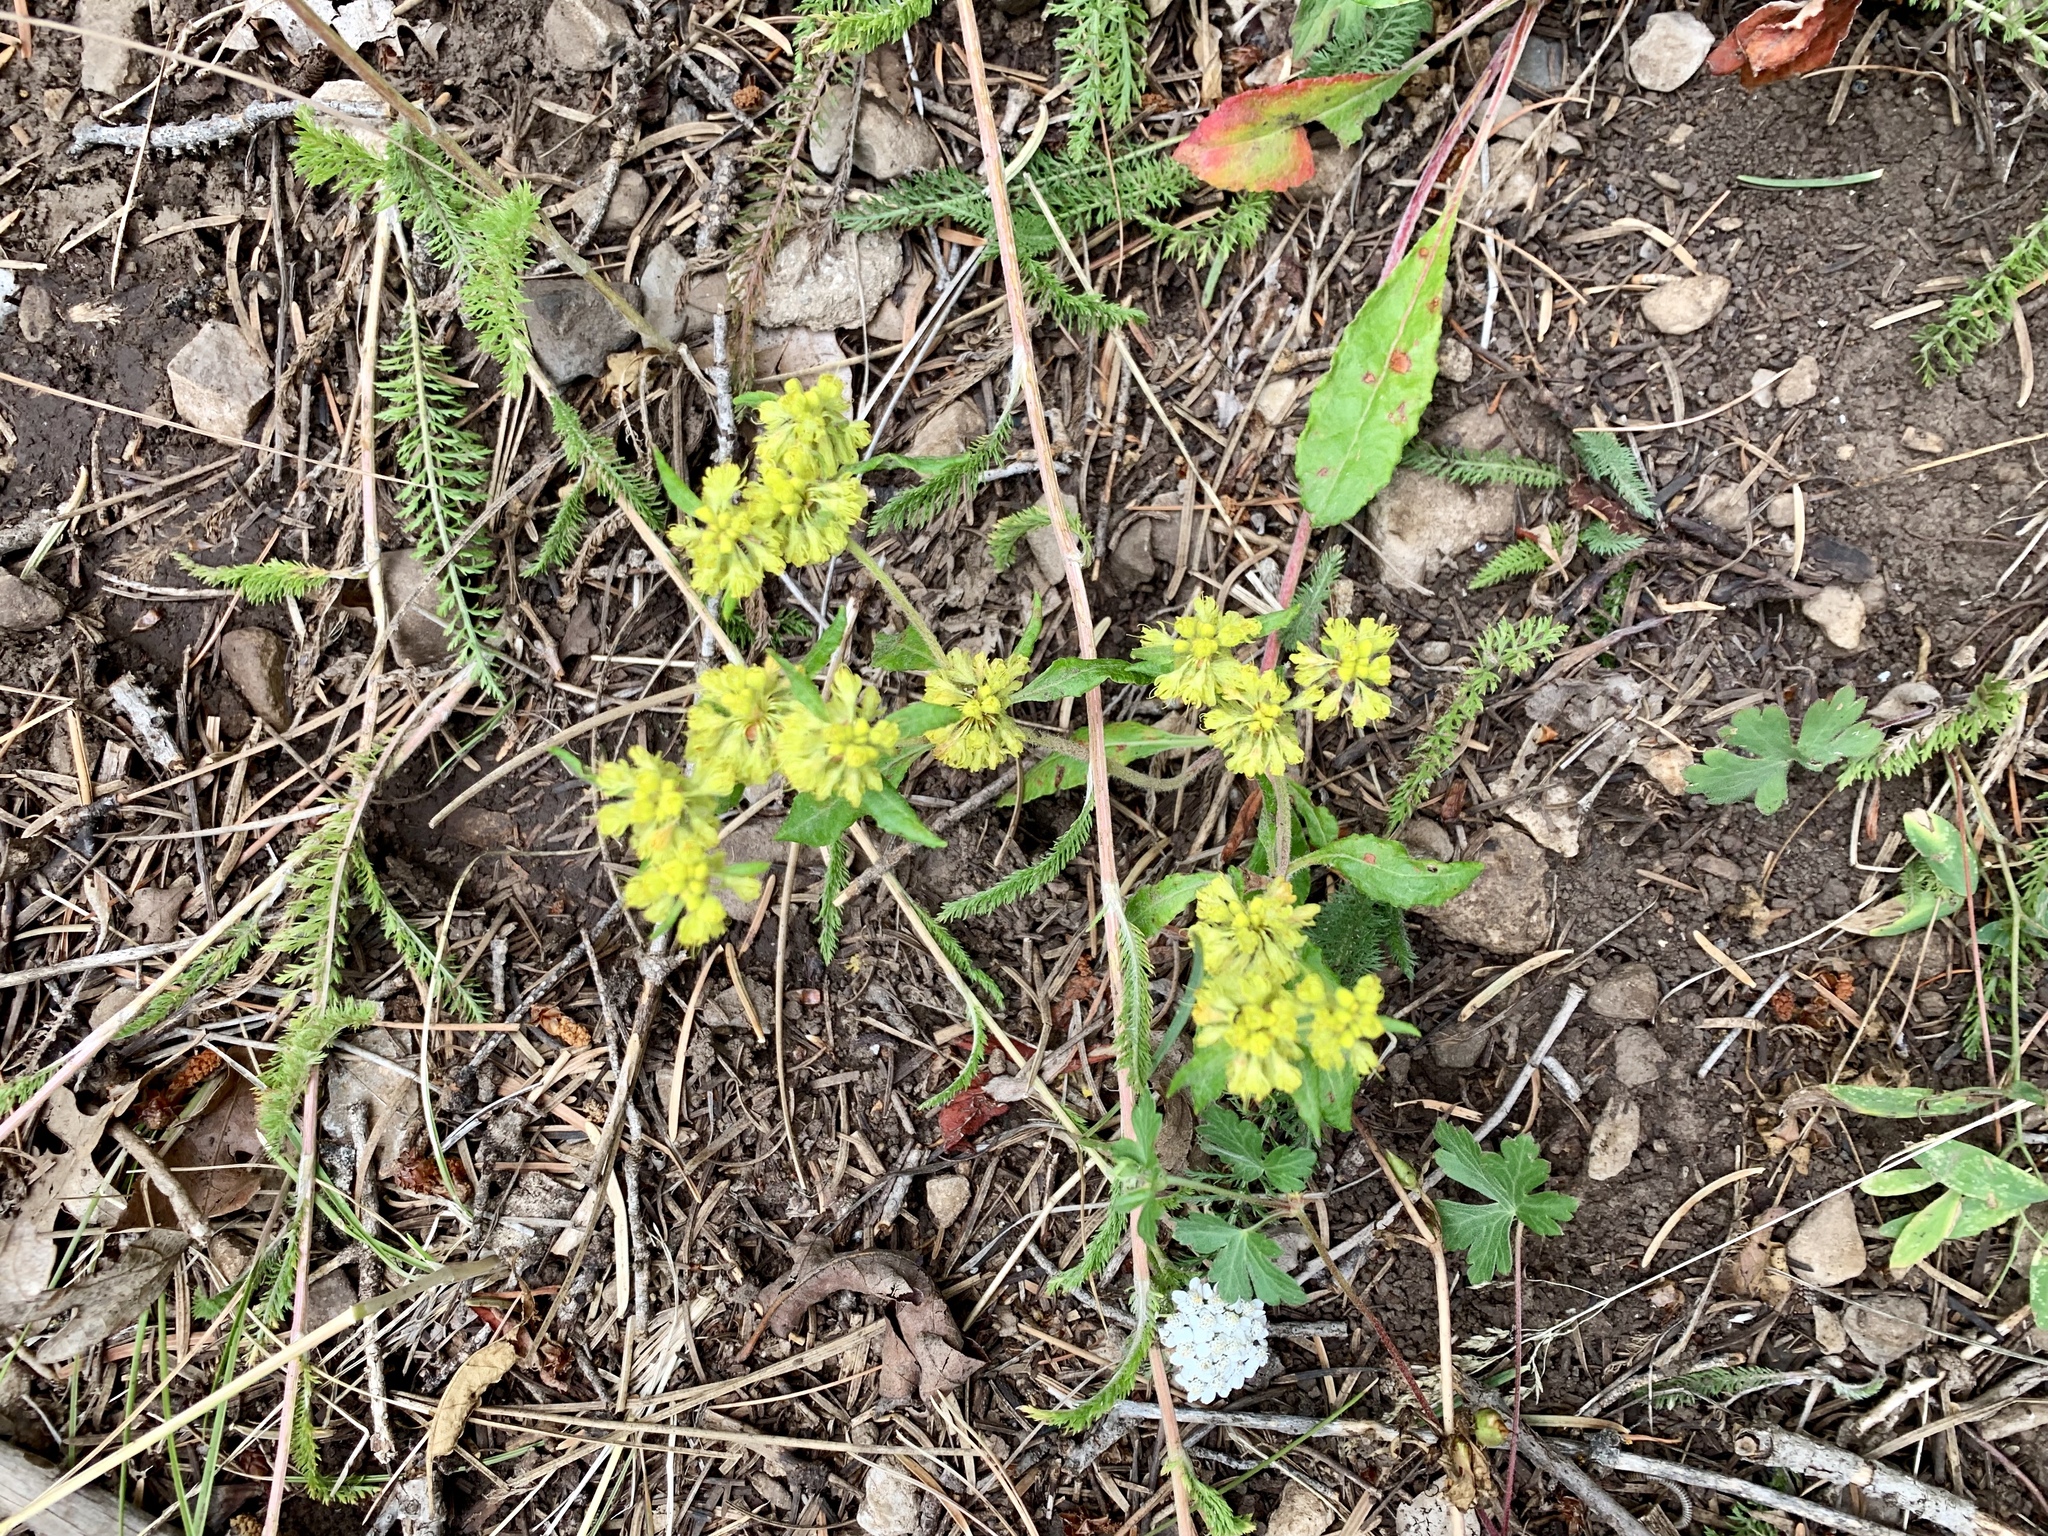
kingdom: Plantae
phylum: Tracheophyta
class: Magnoliopsida
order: Caryophyllales
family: Polygonaceae
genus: Eriogonum
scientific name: Eriogonum wootonii
